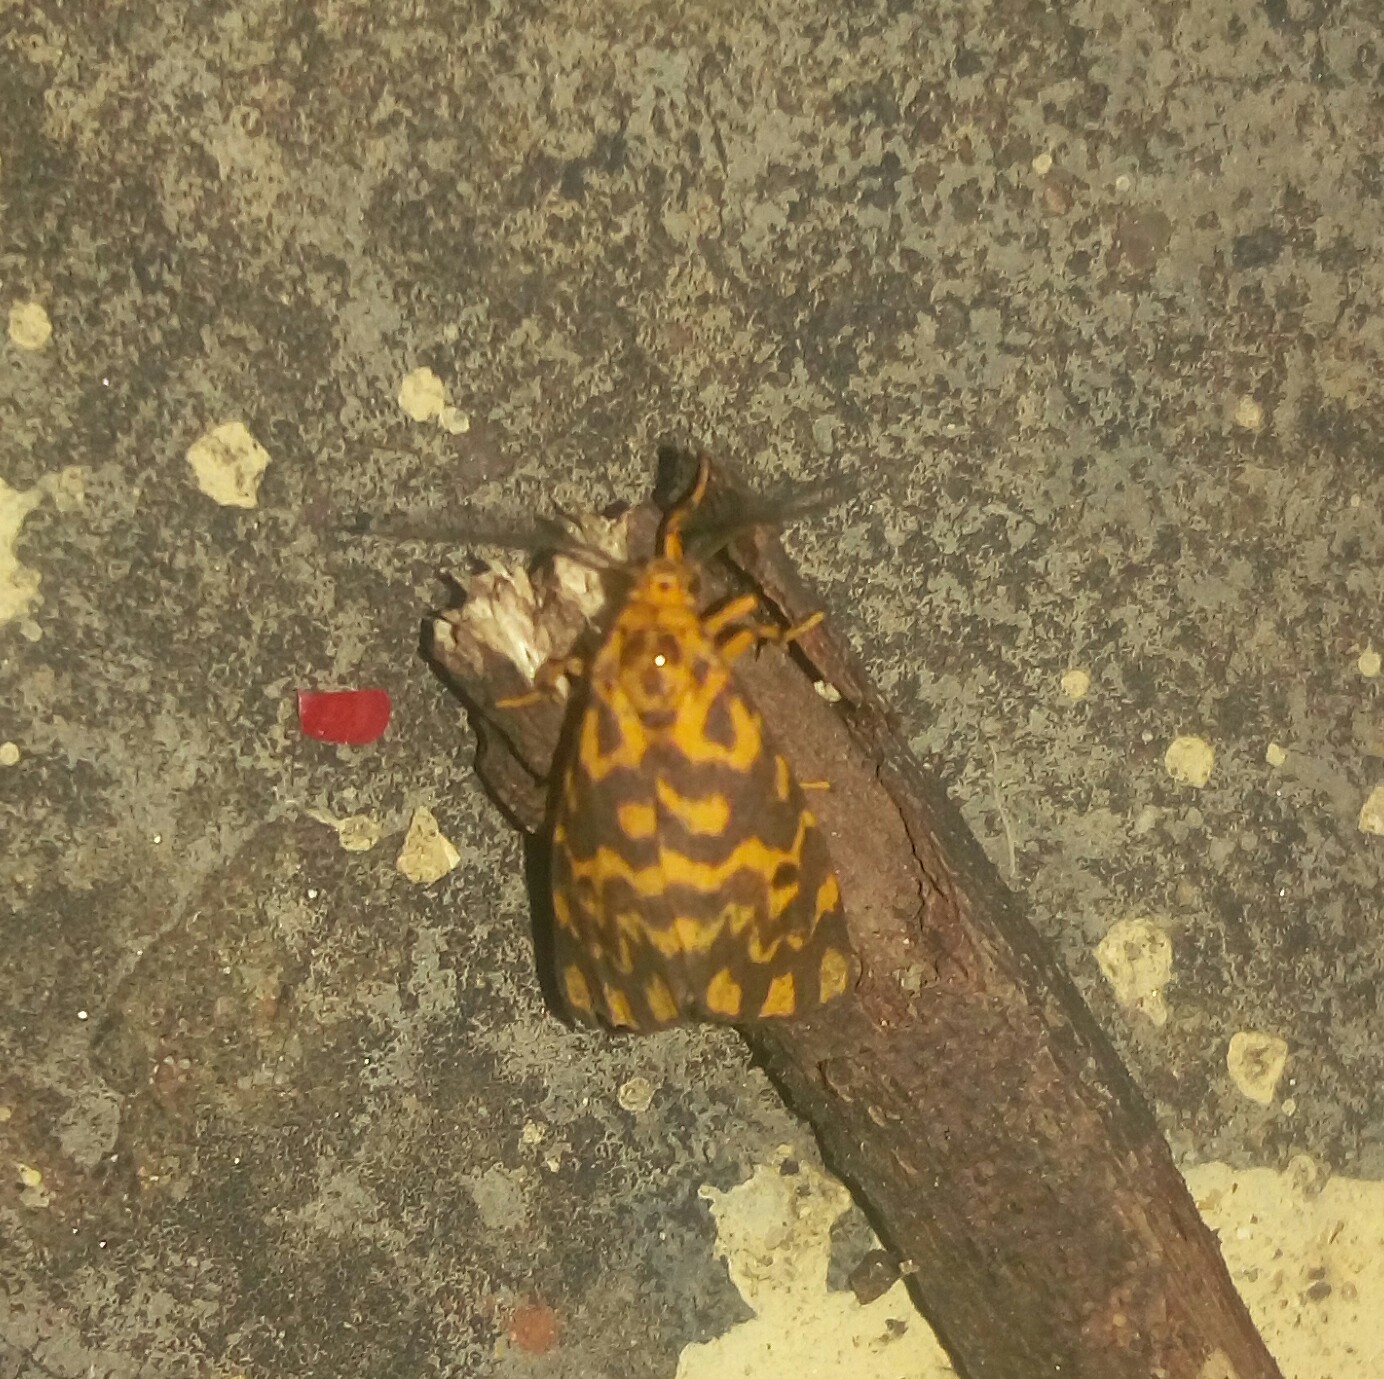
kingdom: Animalia
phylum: Arthropoda
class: Insecta
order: Lepidoptera
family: Erebidae
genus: Nepita
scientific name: Nepita conferta
